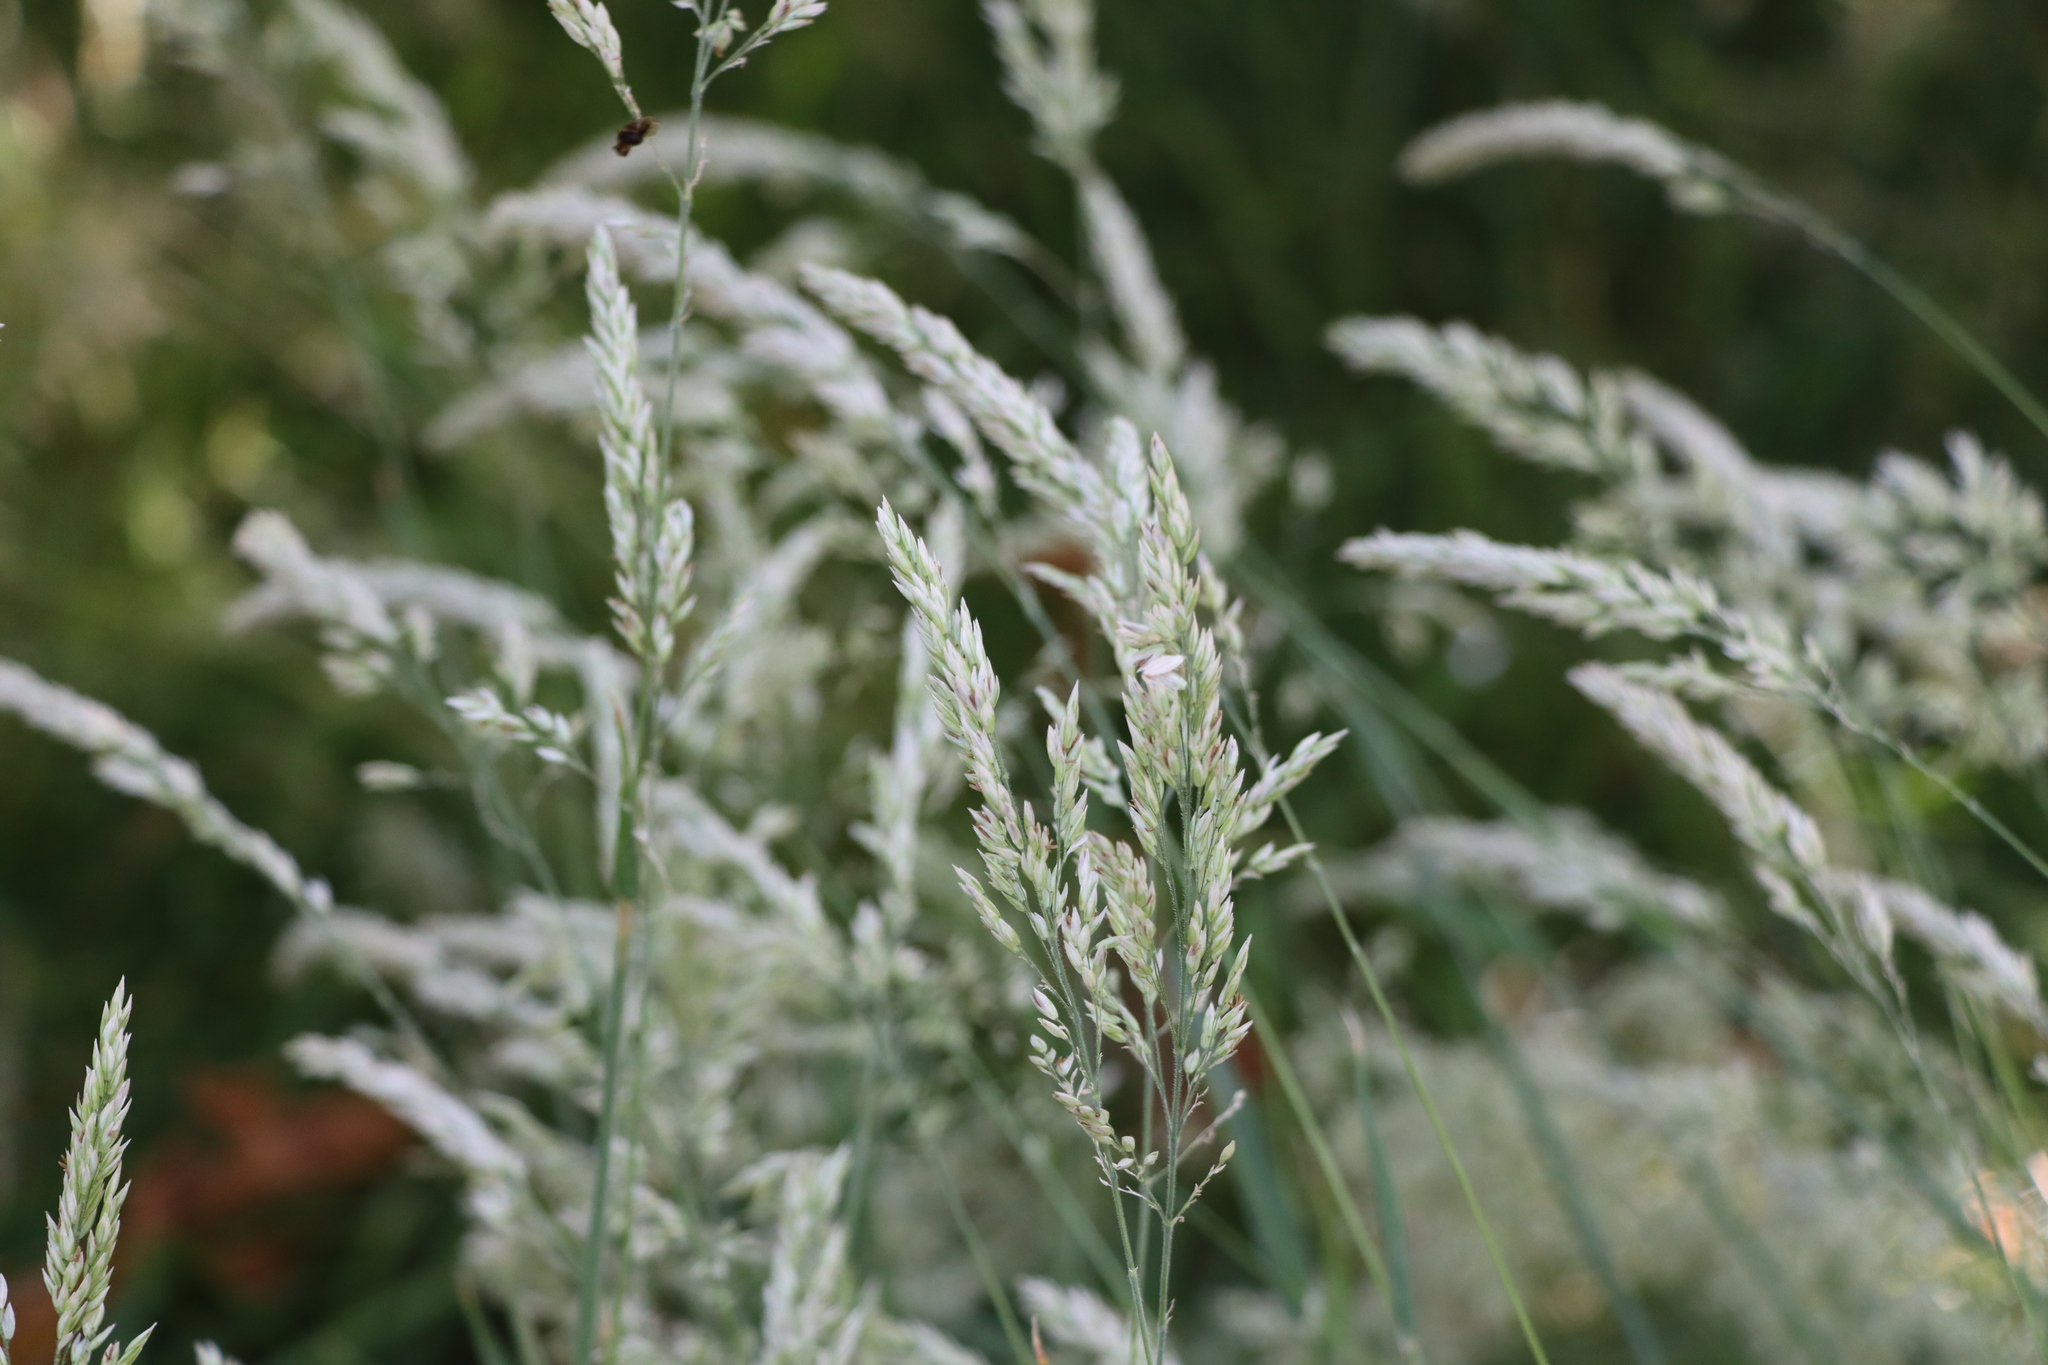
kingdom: Plantae
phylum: Tracheophyta
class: Liliopsida
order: Poales
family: Poaceae
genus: Holcus
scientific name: Holcus lanatus
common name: Yorkshire-fog
